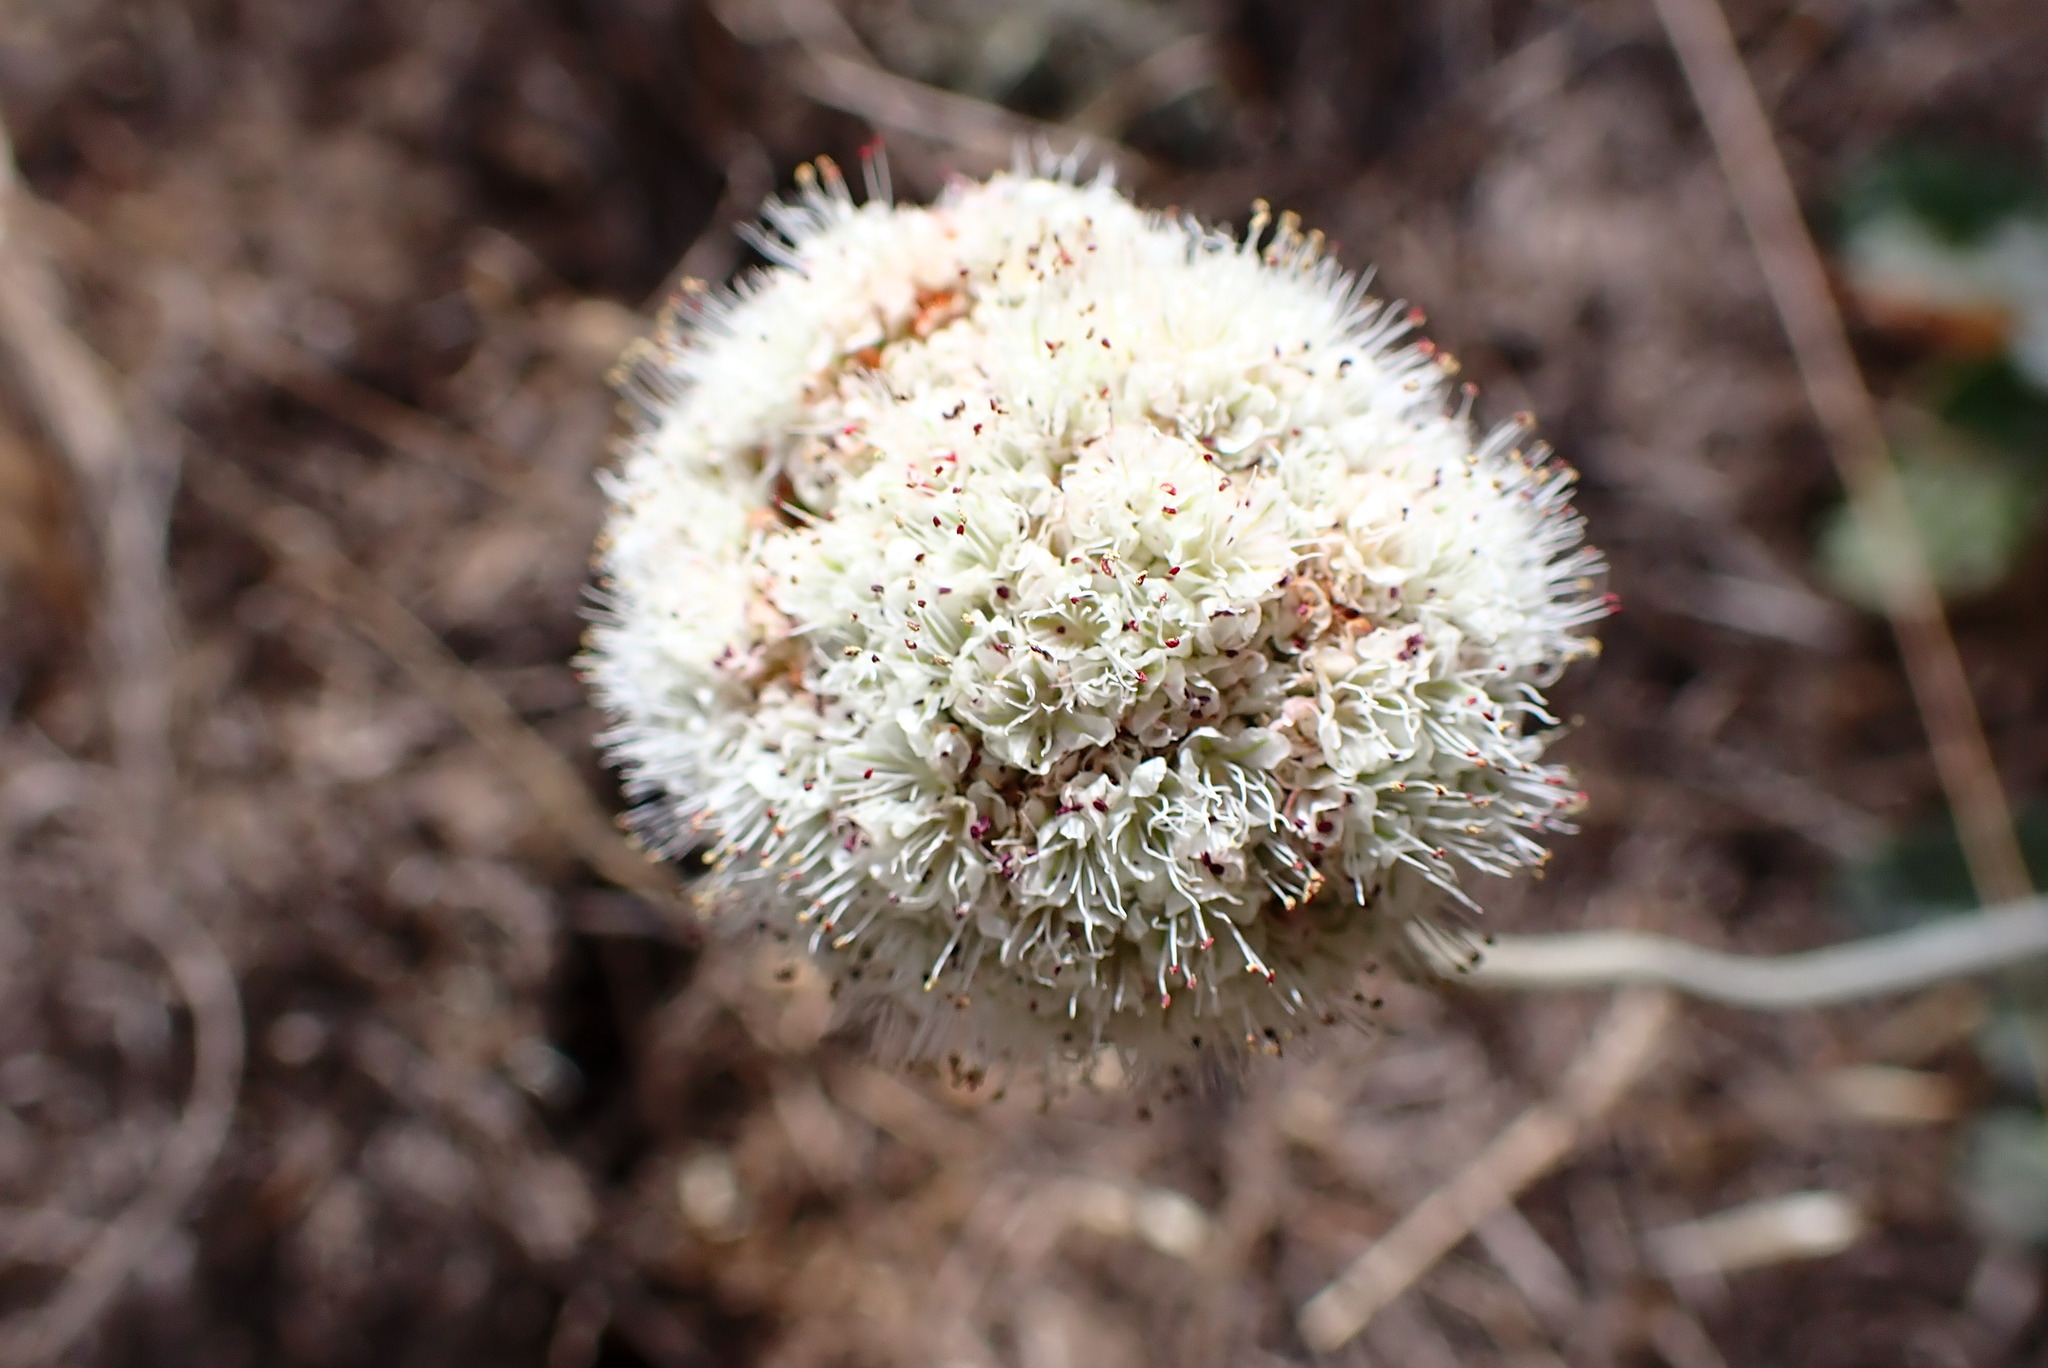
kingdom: Plantae
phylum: Tracheophyta
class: Magnoliopsida
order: Caryophyllales
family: Polygonaceae
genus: Eriogonum
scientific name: Eriogonum latifolium
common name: Seaside wild buckwheat
